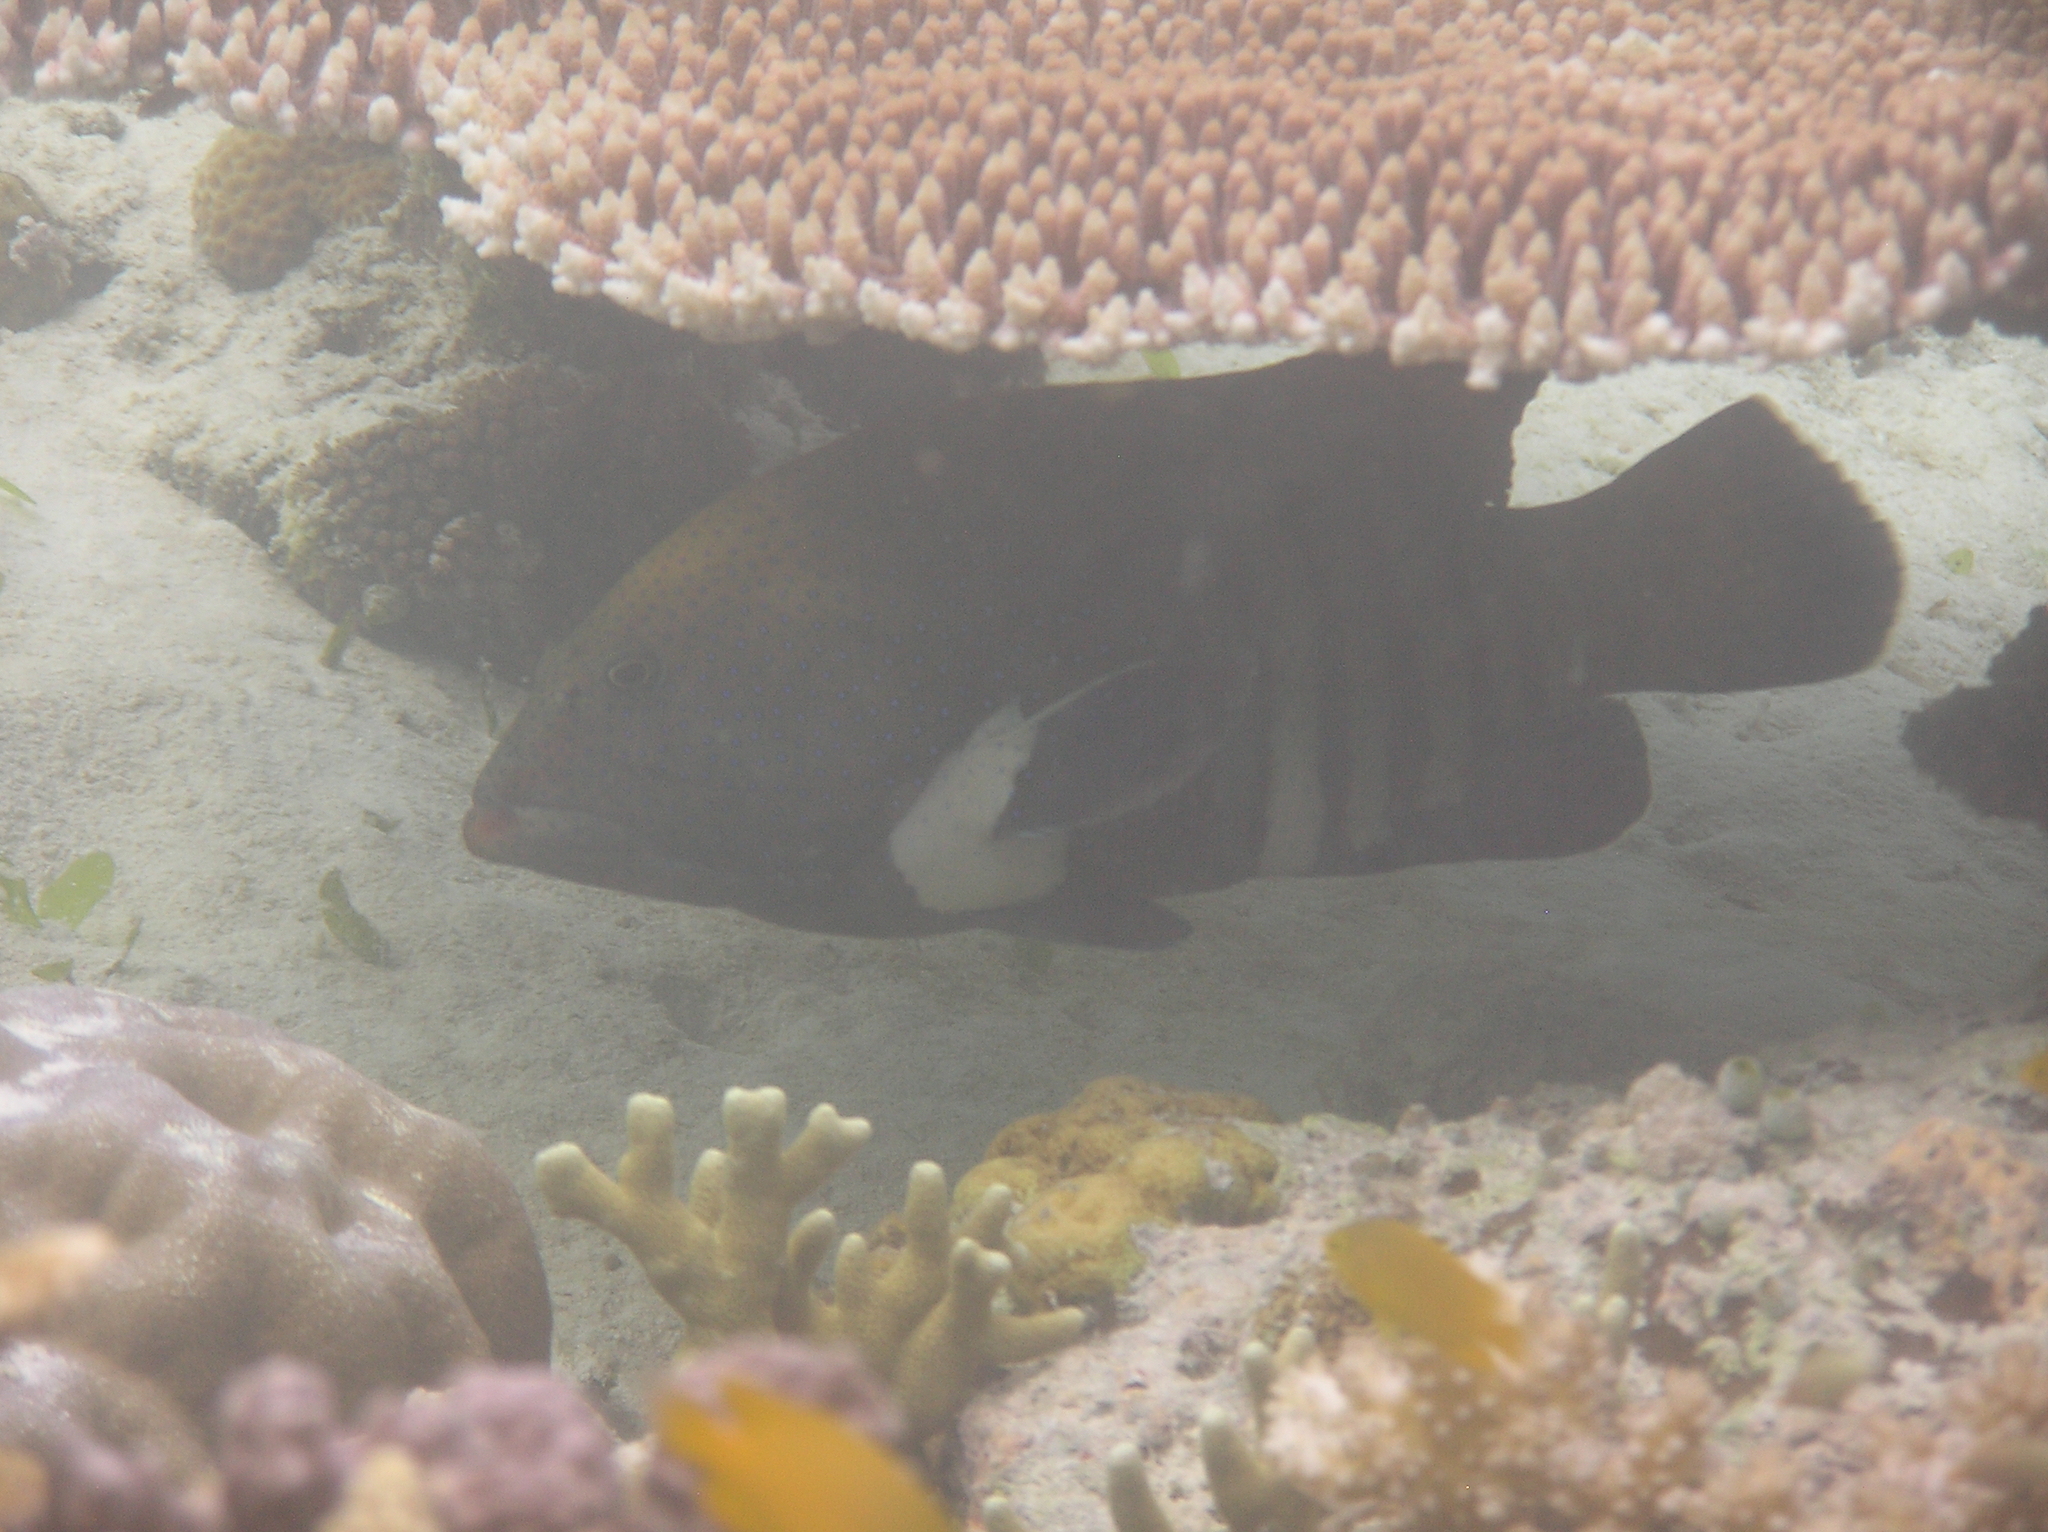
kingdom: Animalia
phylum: Chordata
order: Perciformes
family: Serranidae
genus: Cephalopholis
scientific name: Cephalopholis argus
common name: Peacock grouper
